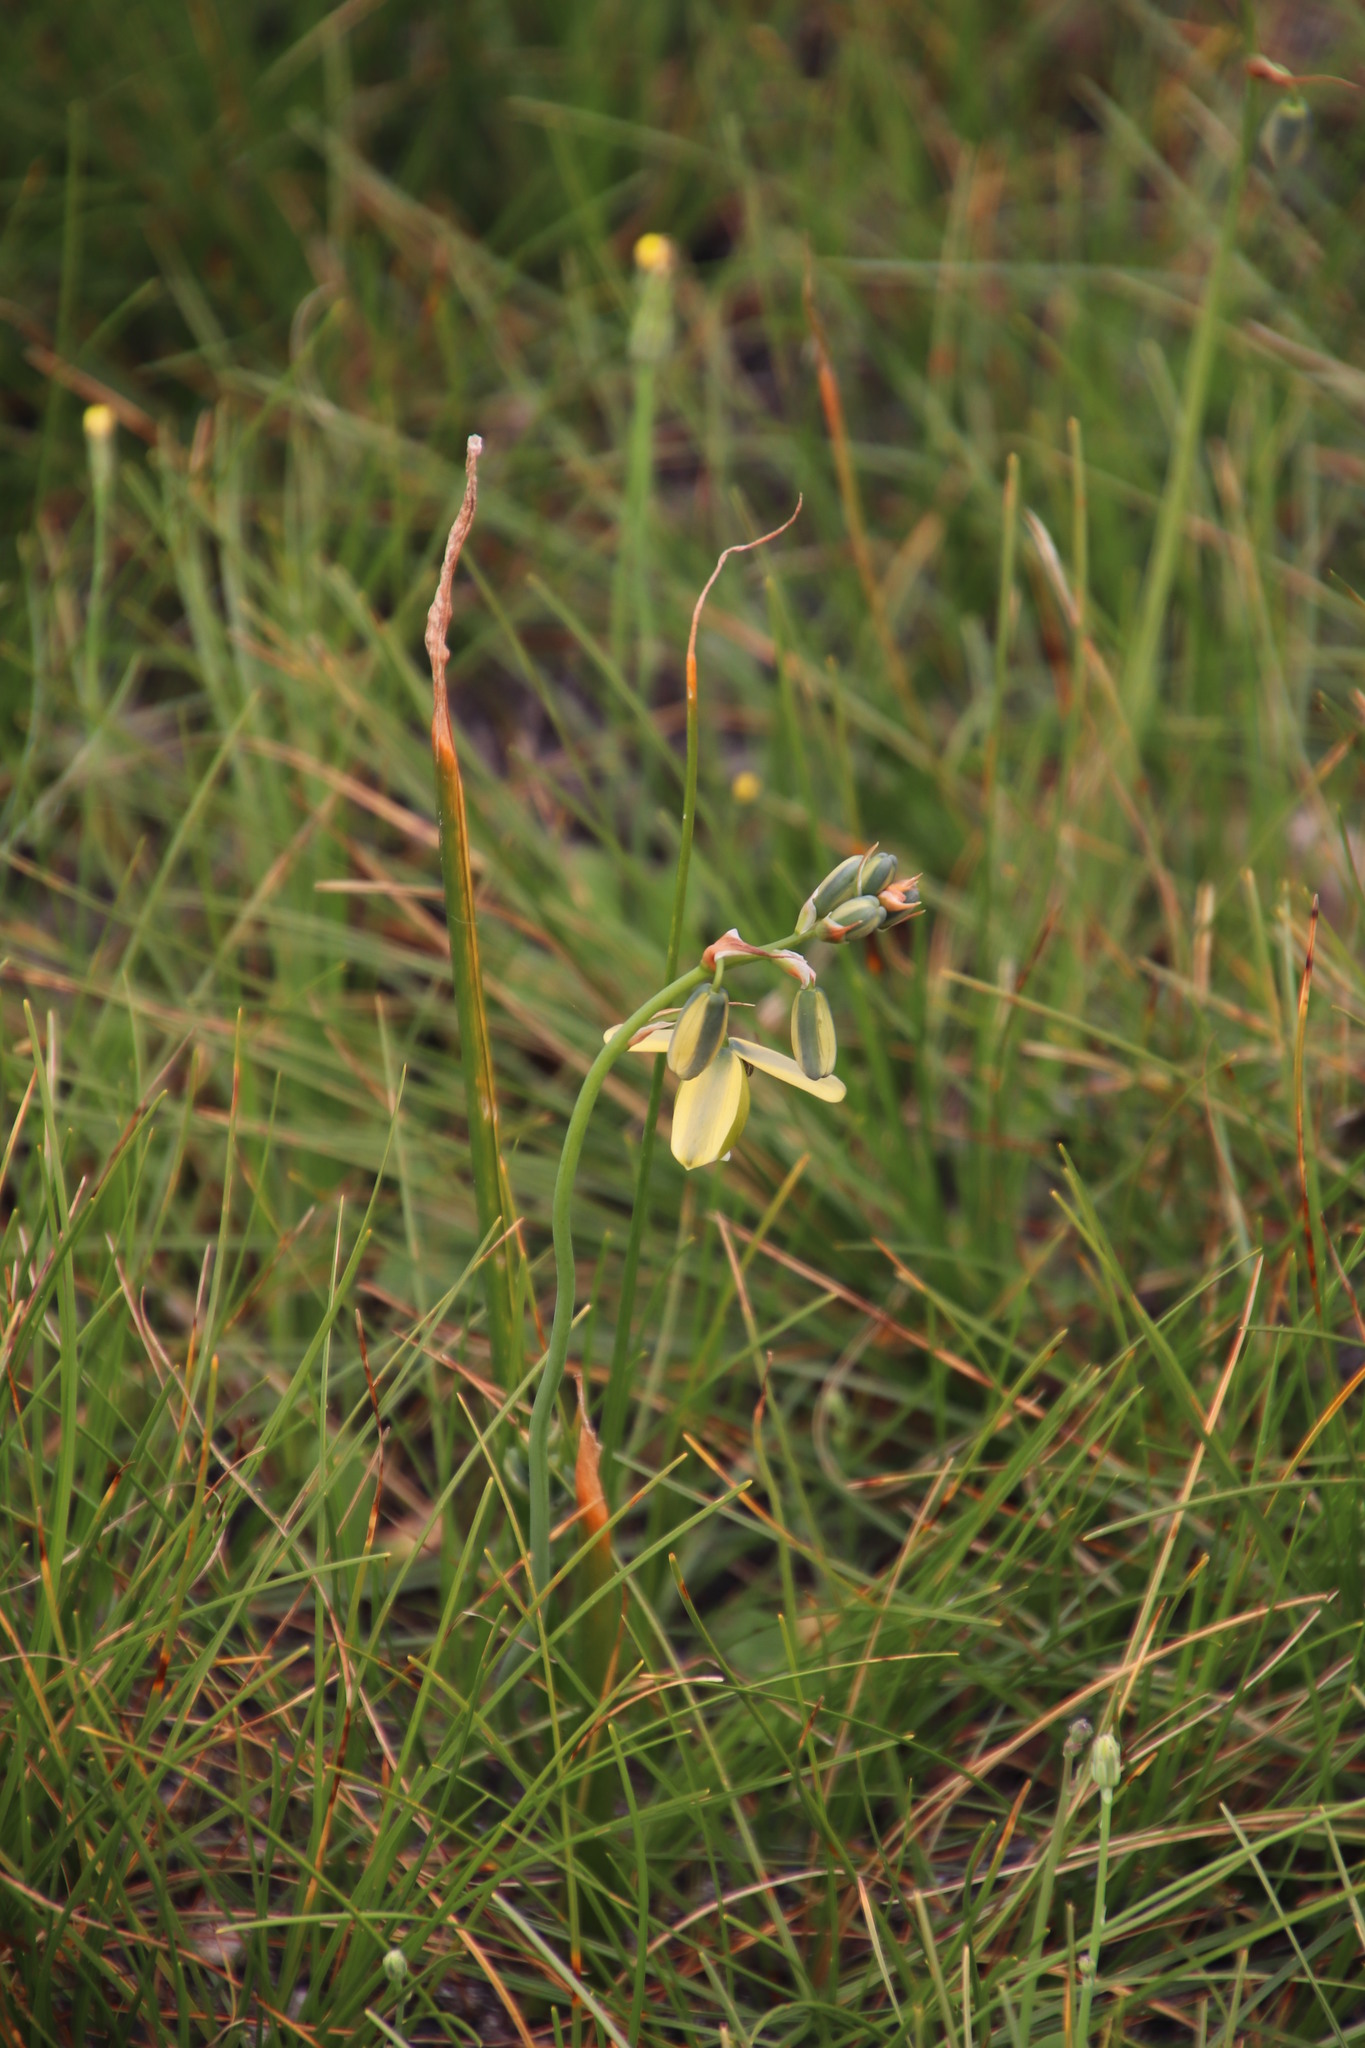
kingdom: Plantae
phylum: Tracheophyta
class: Liliopsida
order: Asparagales
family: Asparagaceae
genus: Albuca
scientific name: Albuca cooperi
